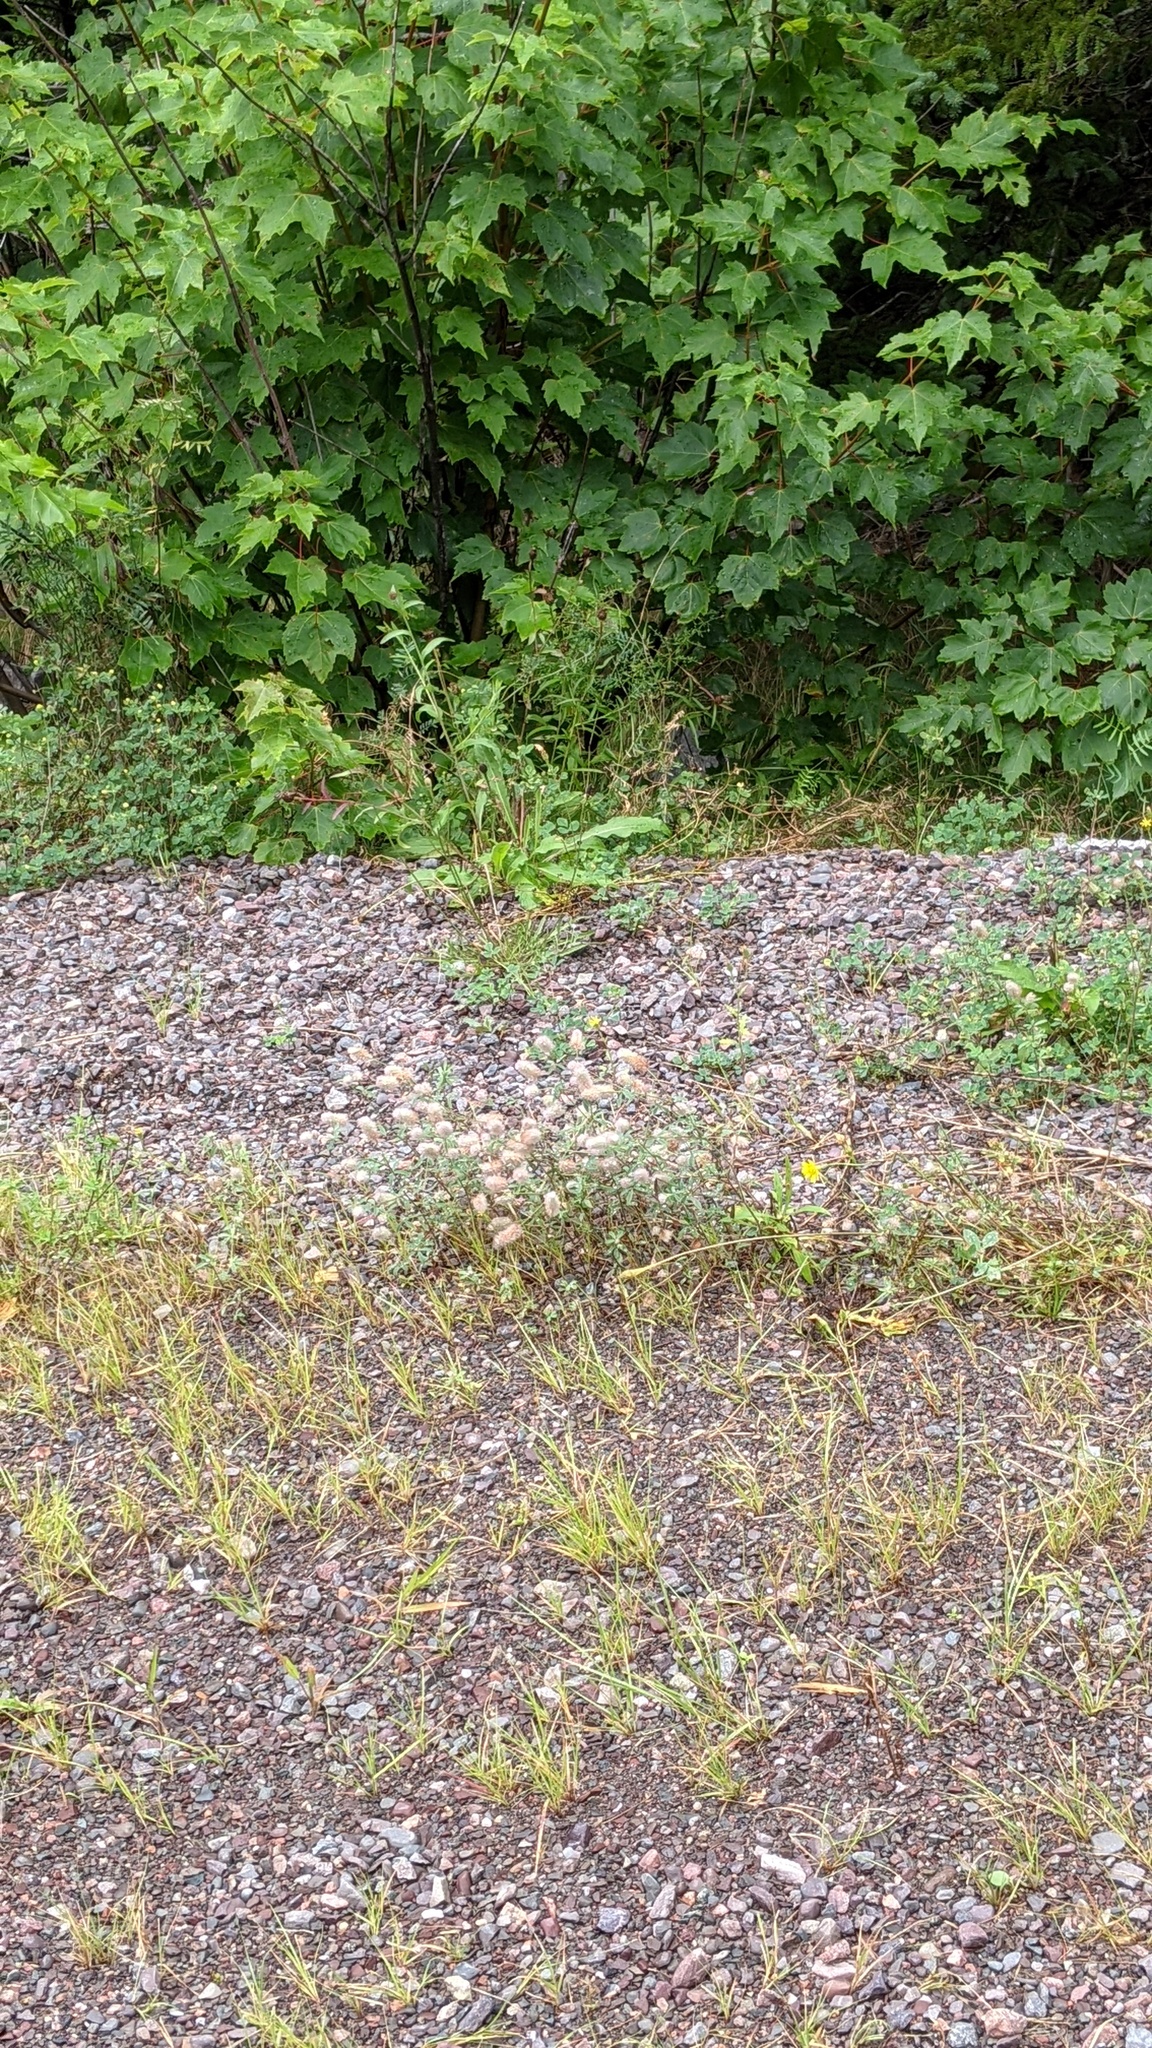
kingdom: Plantae
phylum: Tracheophyta
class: Magnoliopsida
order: Fabales
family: Fabaceae
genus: Trifolium
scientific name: Trifolium arvense
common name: Hare's-foot clover
